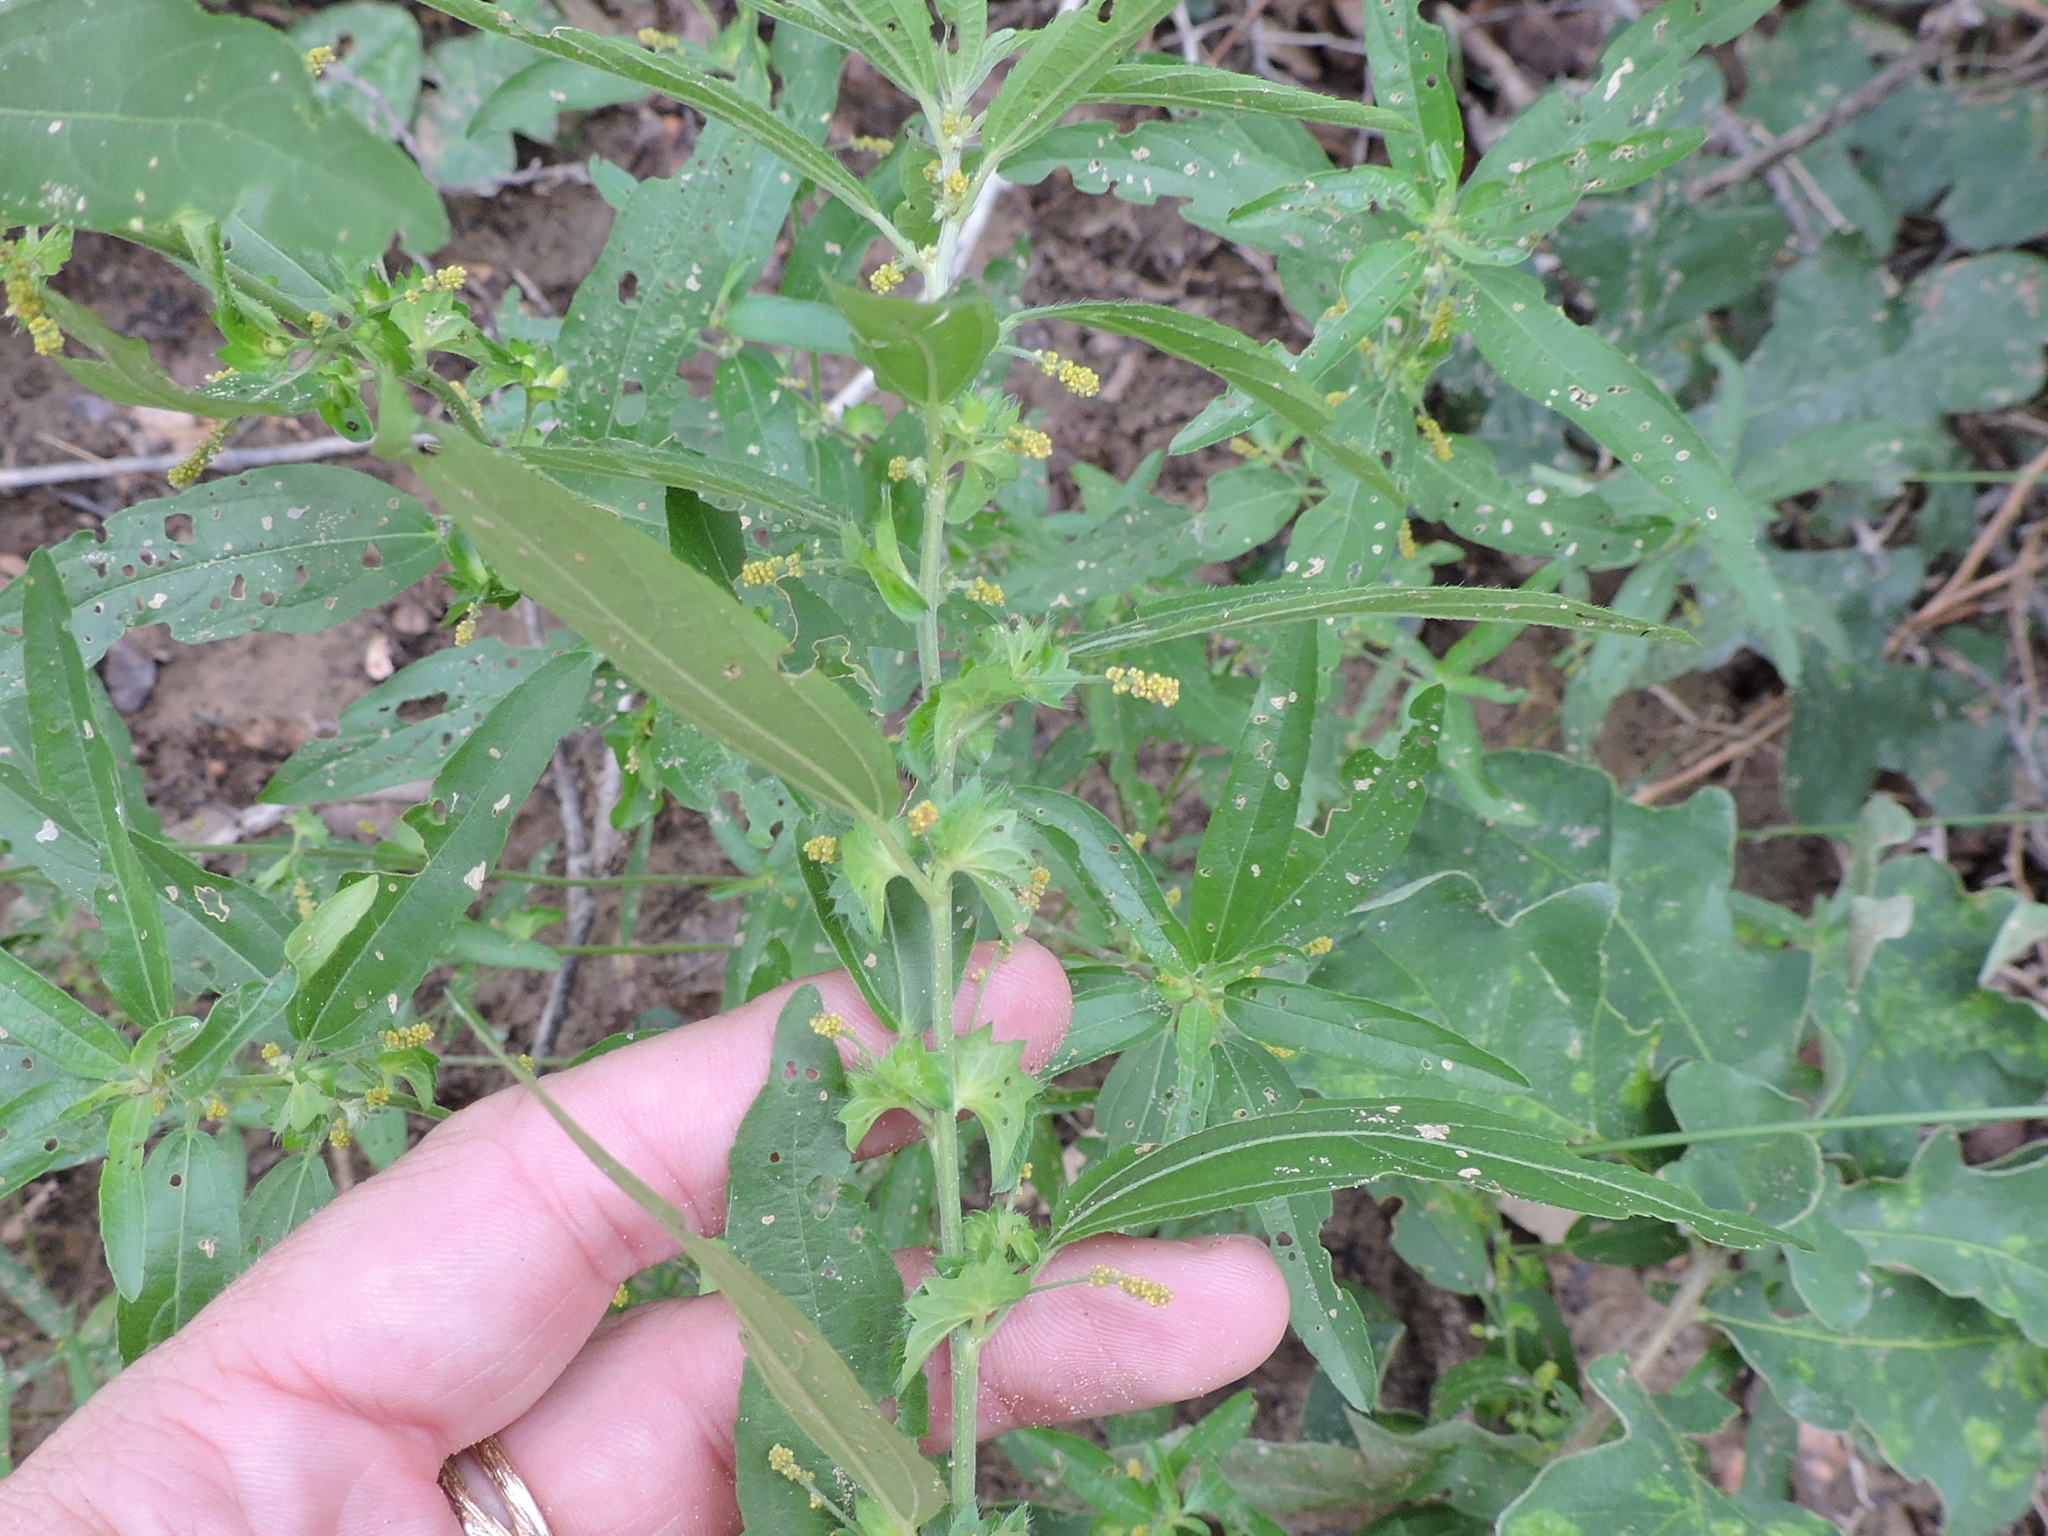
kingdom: Plantae
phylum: Tracheophyta
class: Magnoliopsida
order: Malpighiales
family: Euphorbiaceae
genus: Acalypha
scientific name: Acalypha gracilens
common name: Slender three-seeded mercury
